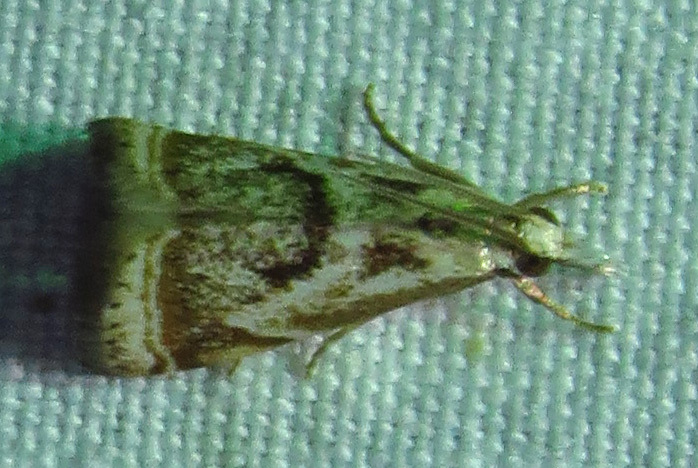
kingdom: Animalia
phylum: Arthropoda
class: Insecta
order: Lepidoptera
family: Crambidae
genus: Microcrambus
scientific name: Microcrambus elegans
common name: Elegant grass-veneer
